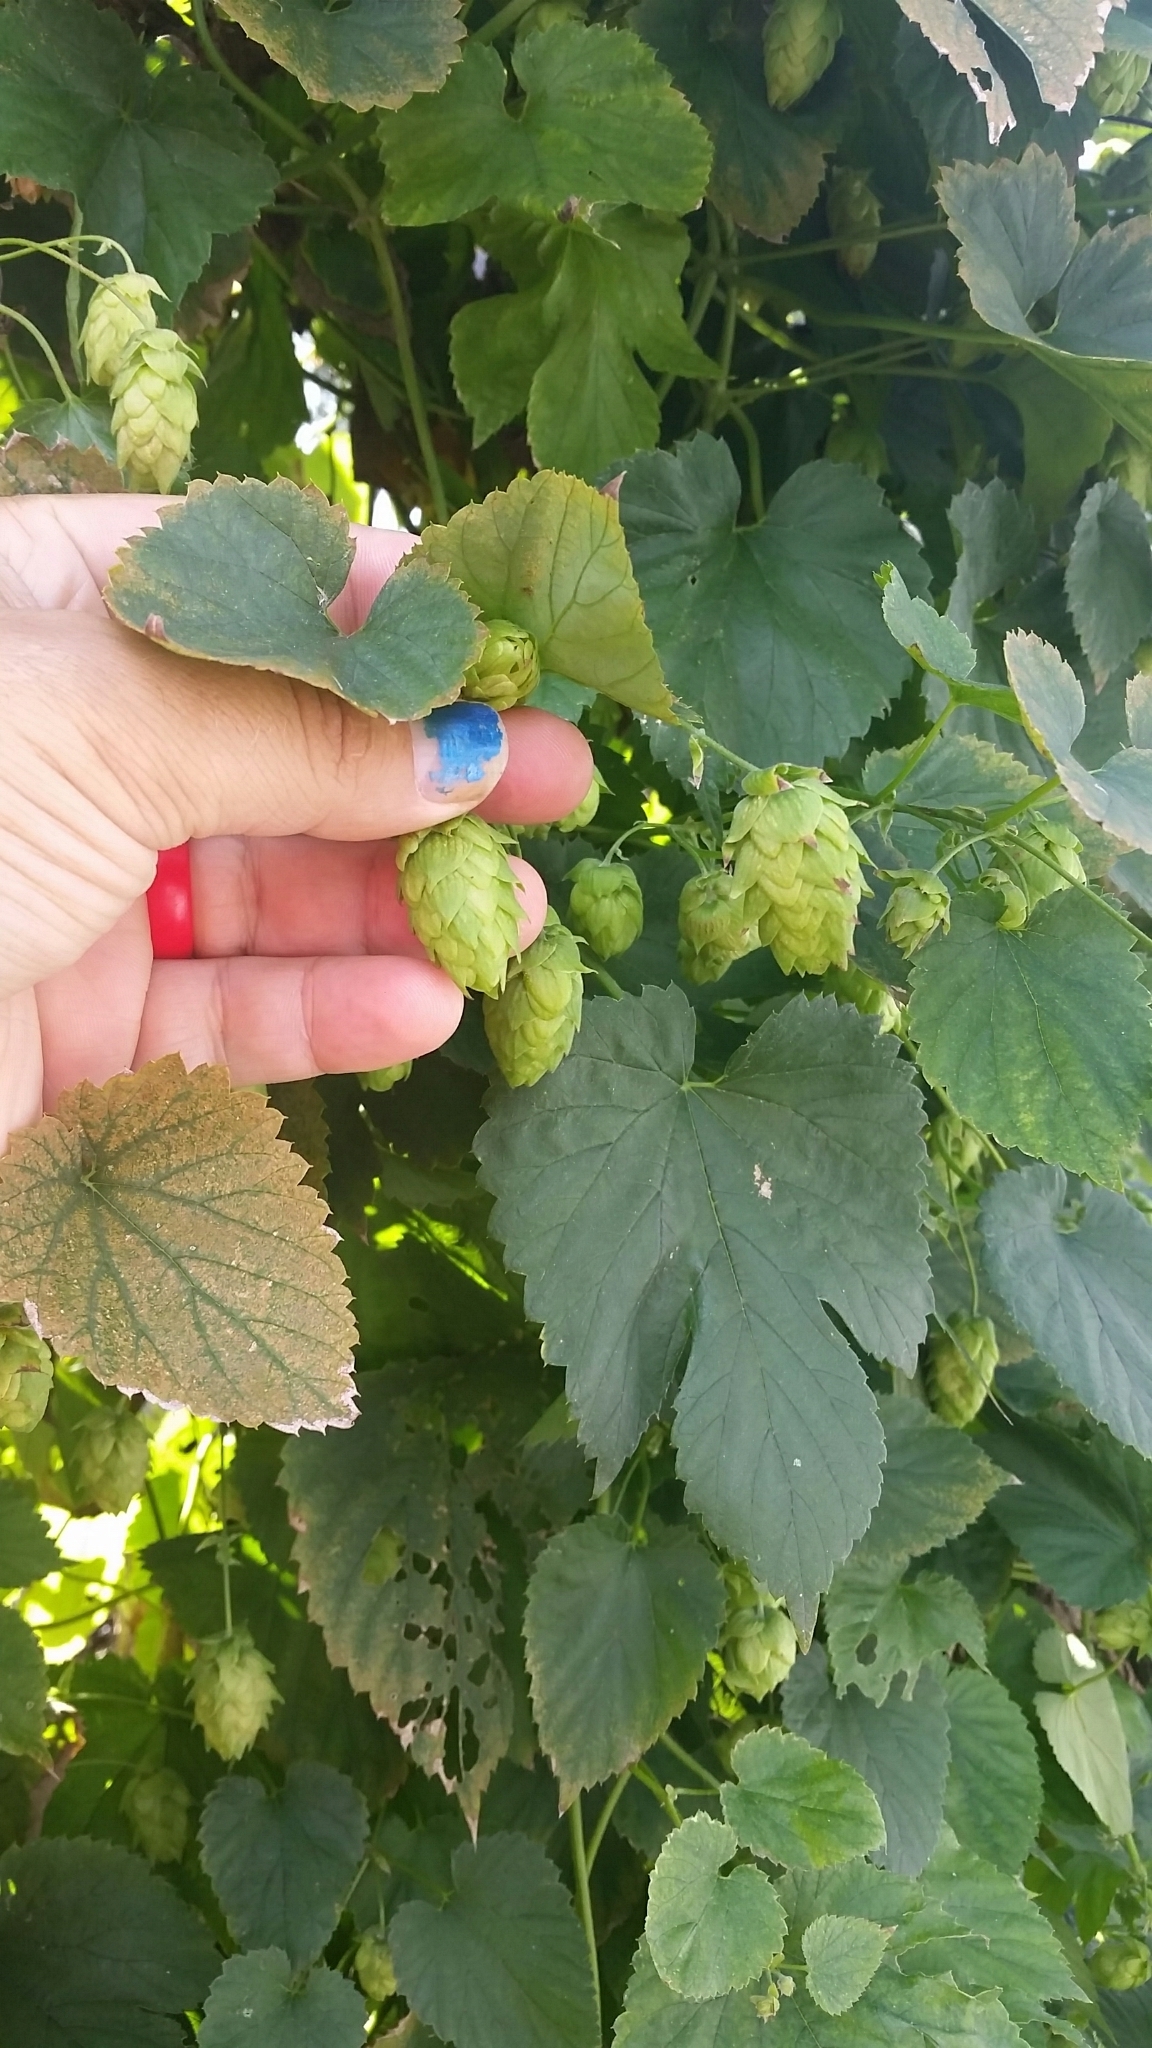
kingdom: Plantae
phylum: Tracheophyta
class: Magnoliopsida
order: Rosales
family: Cannabaceae
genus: Humulus
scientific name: Humulus lupulus
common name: Hop
